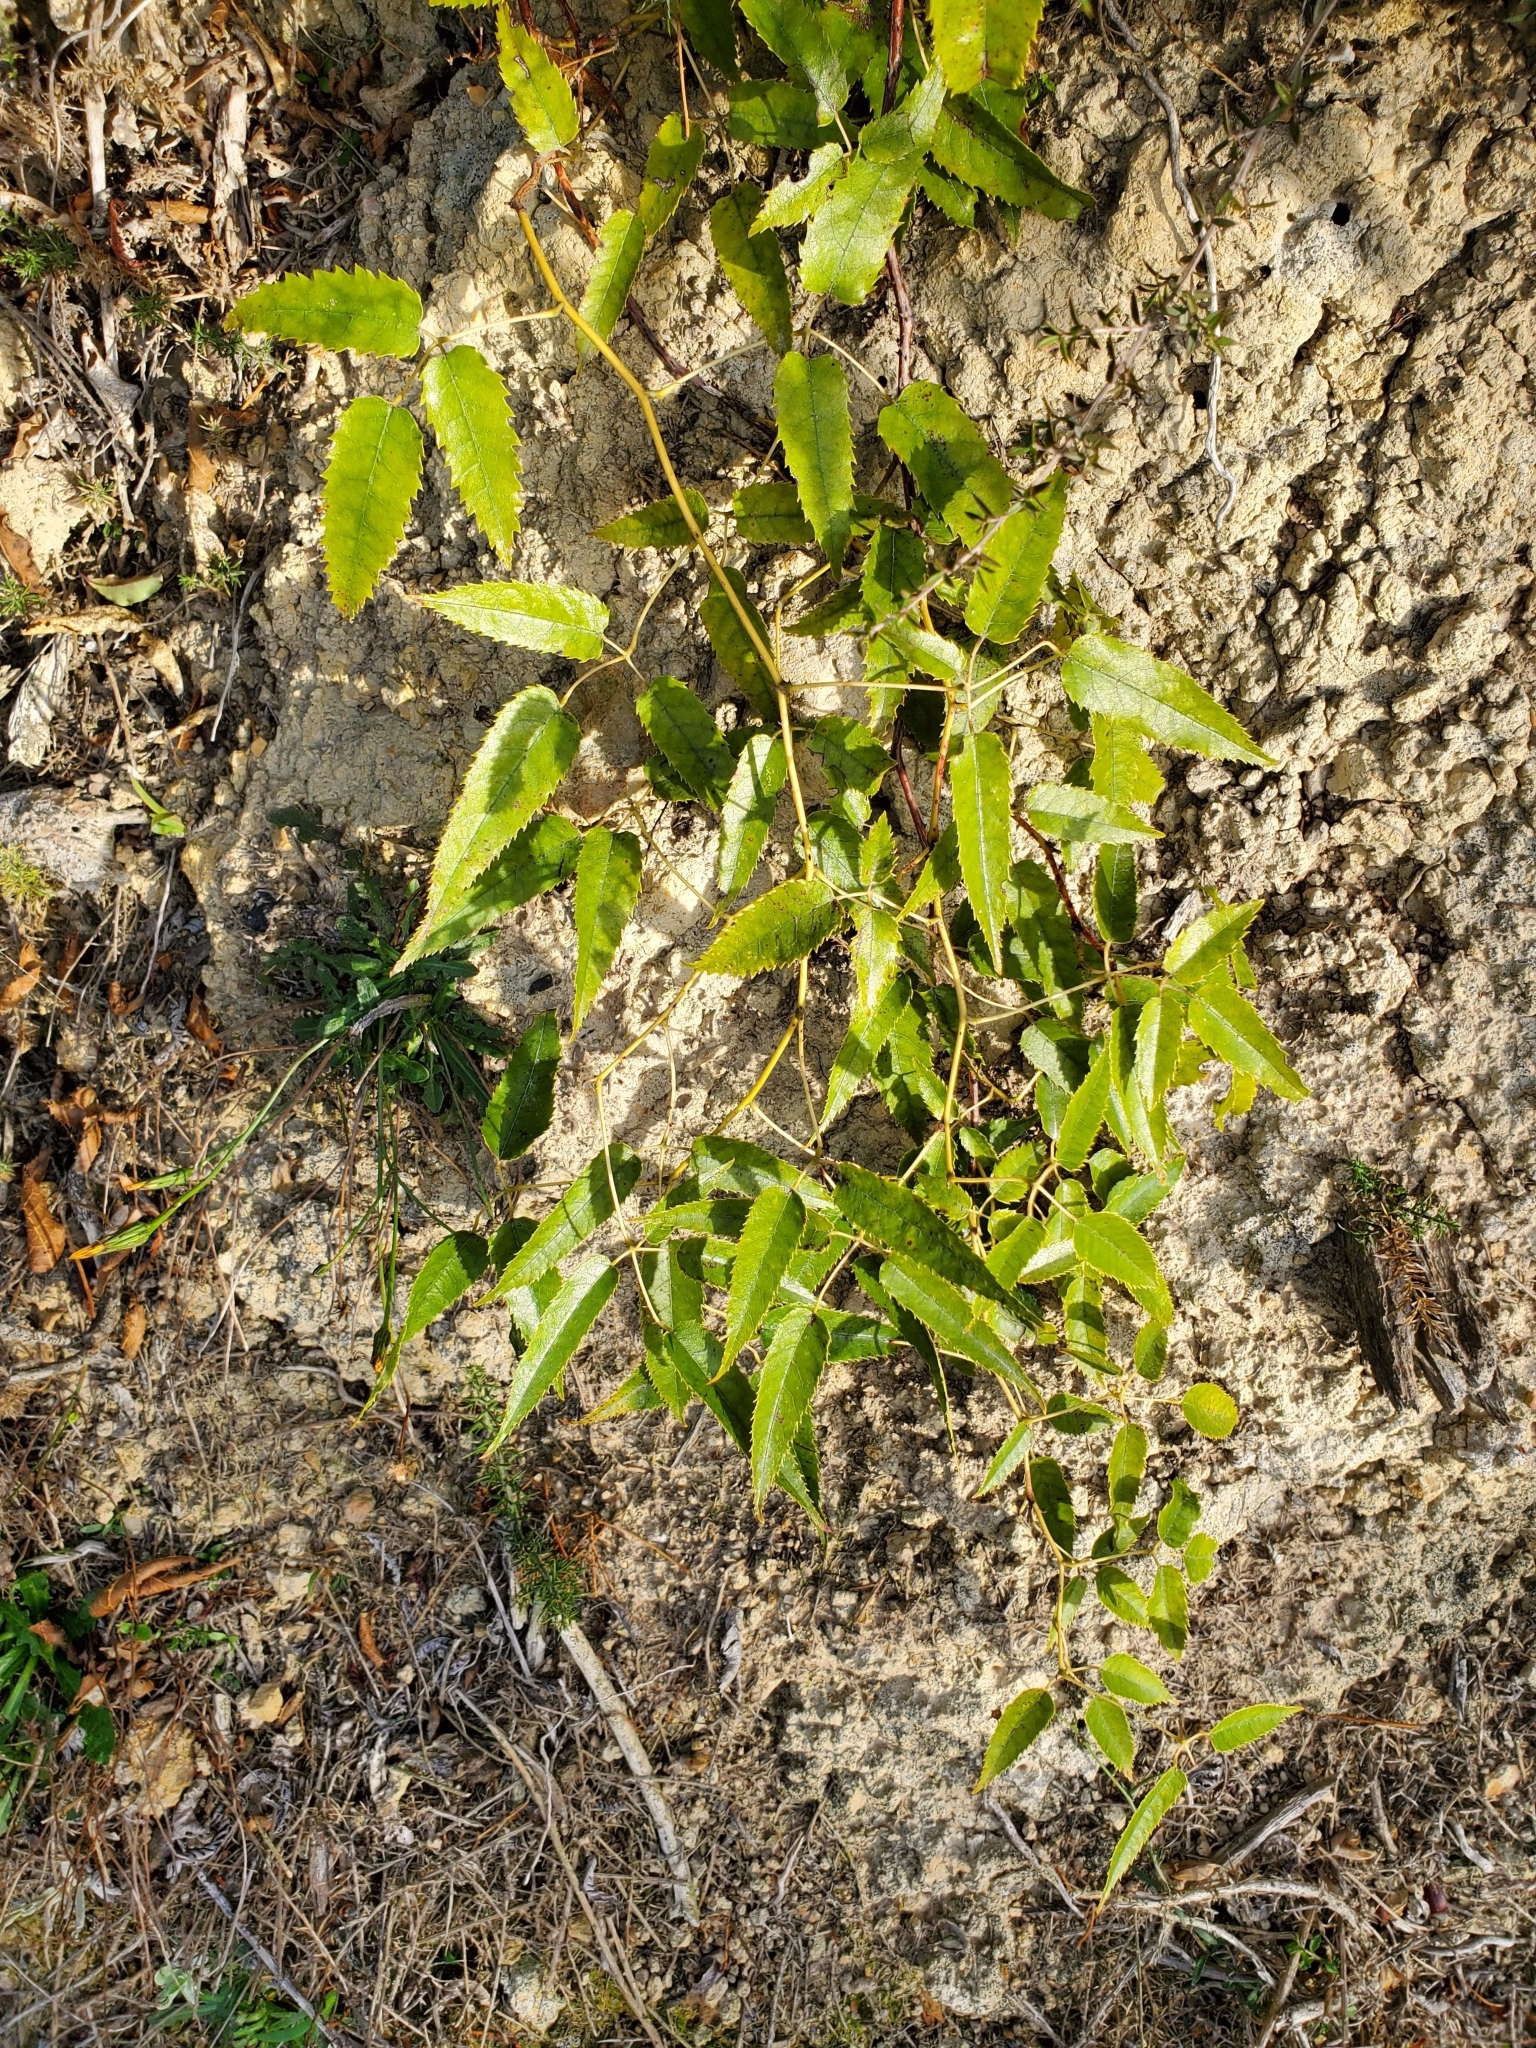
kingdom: Plantae
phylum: Tracheophyta
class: Magnoliopsida
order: Rosales
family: Rosaceae
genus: Rubus
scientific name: Rubus cissoides
